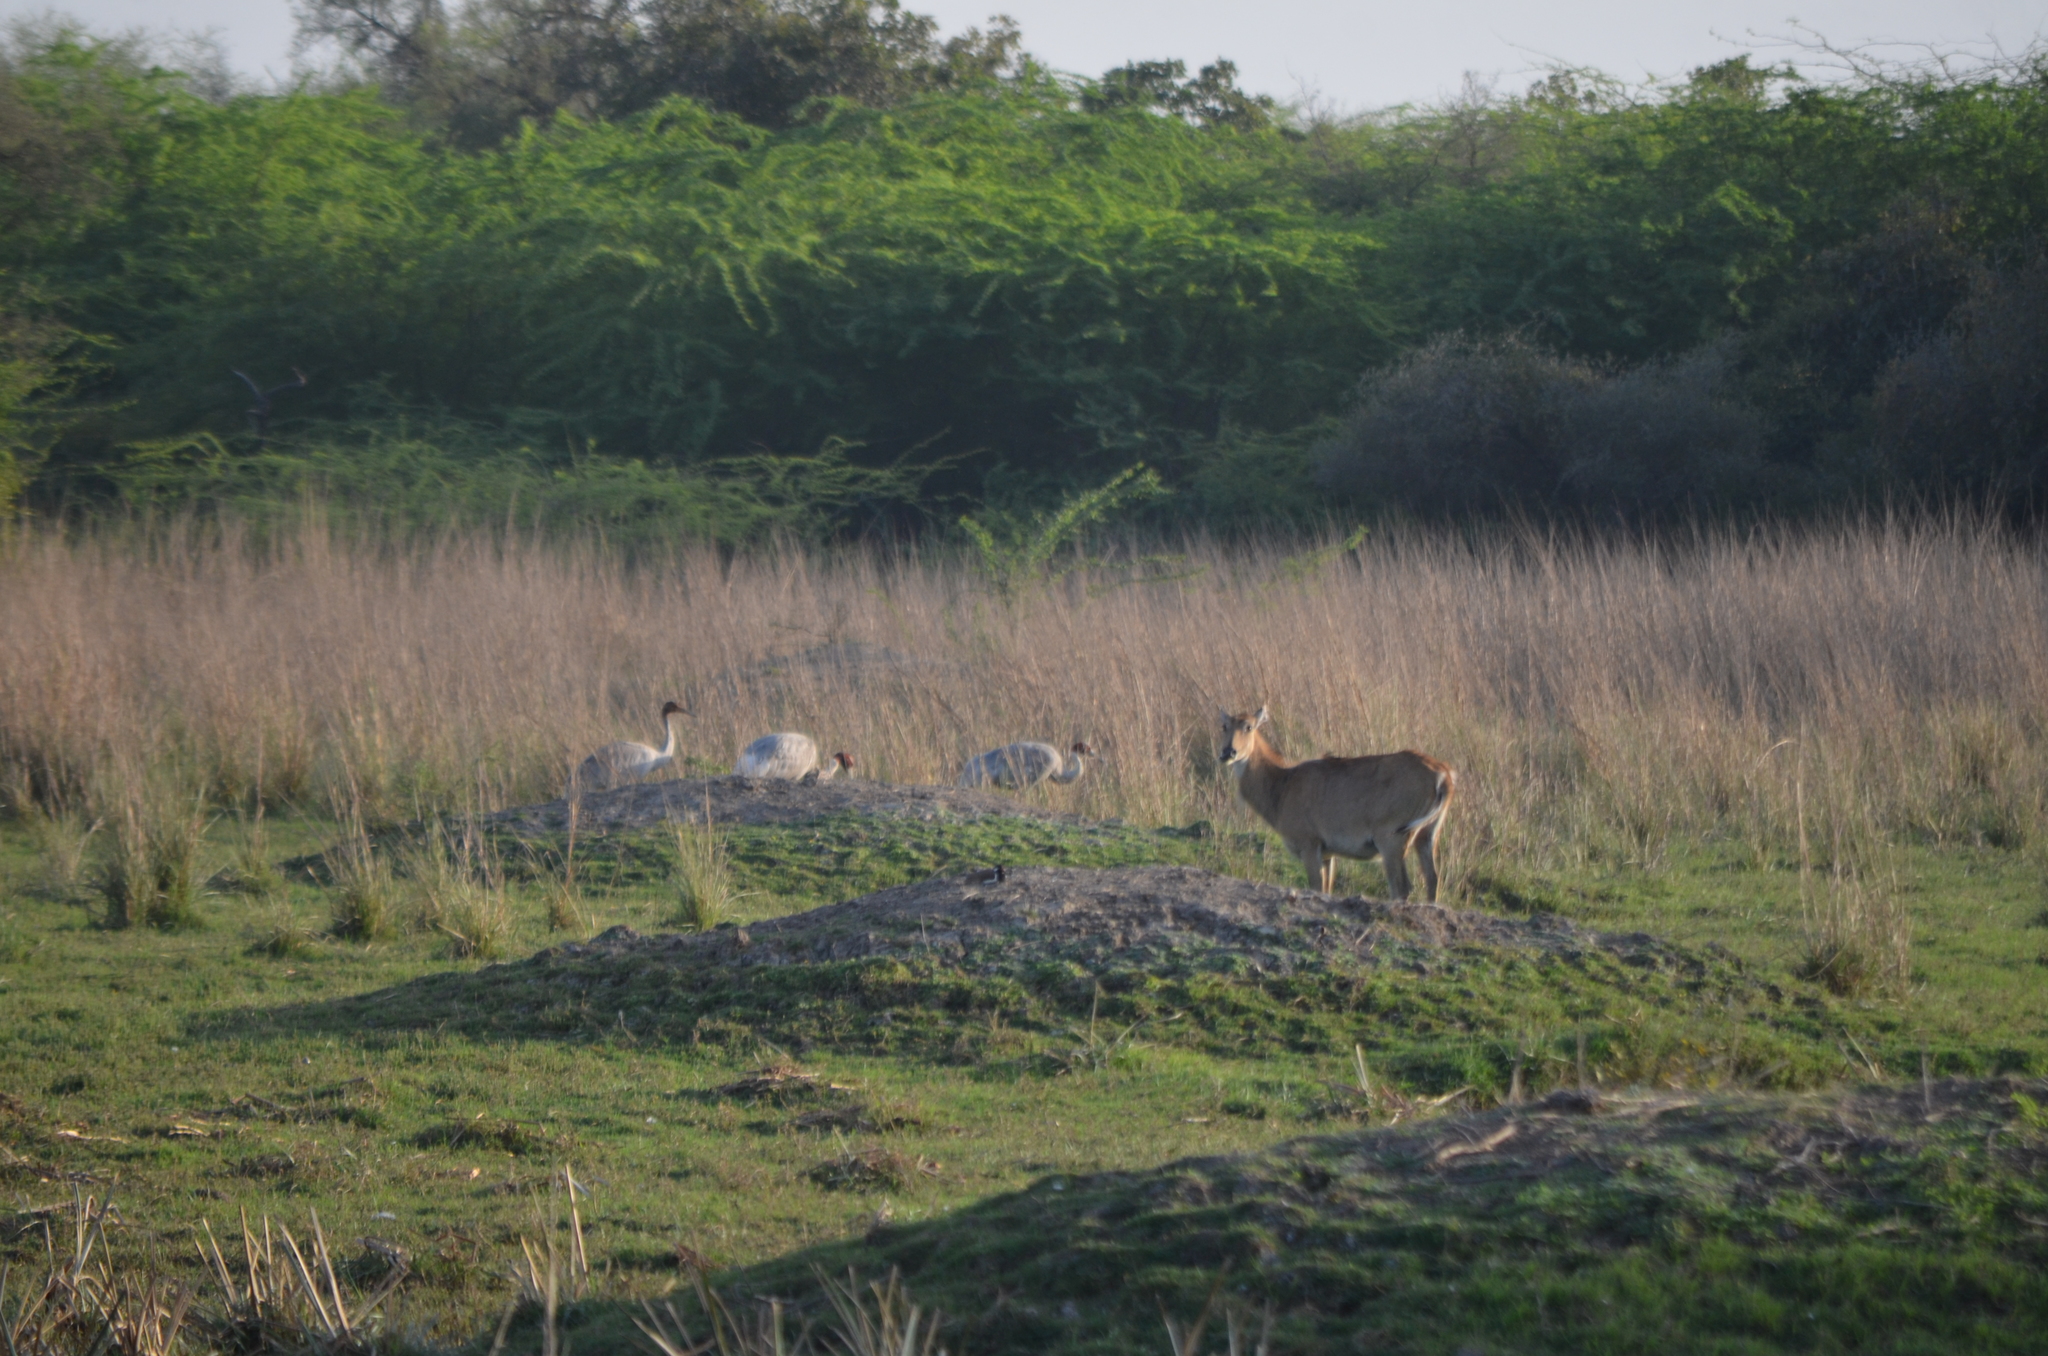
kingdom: Animalia
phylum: Chordata
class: Mammalia
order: Artiodactyla
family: Bovidae
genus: Boselaphus
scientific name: Boselaphus tragocamelus
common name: Nilgai
